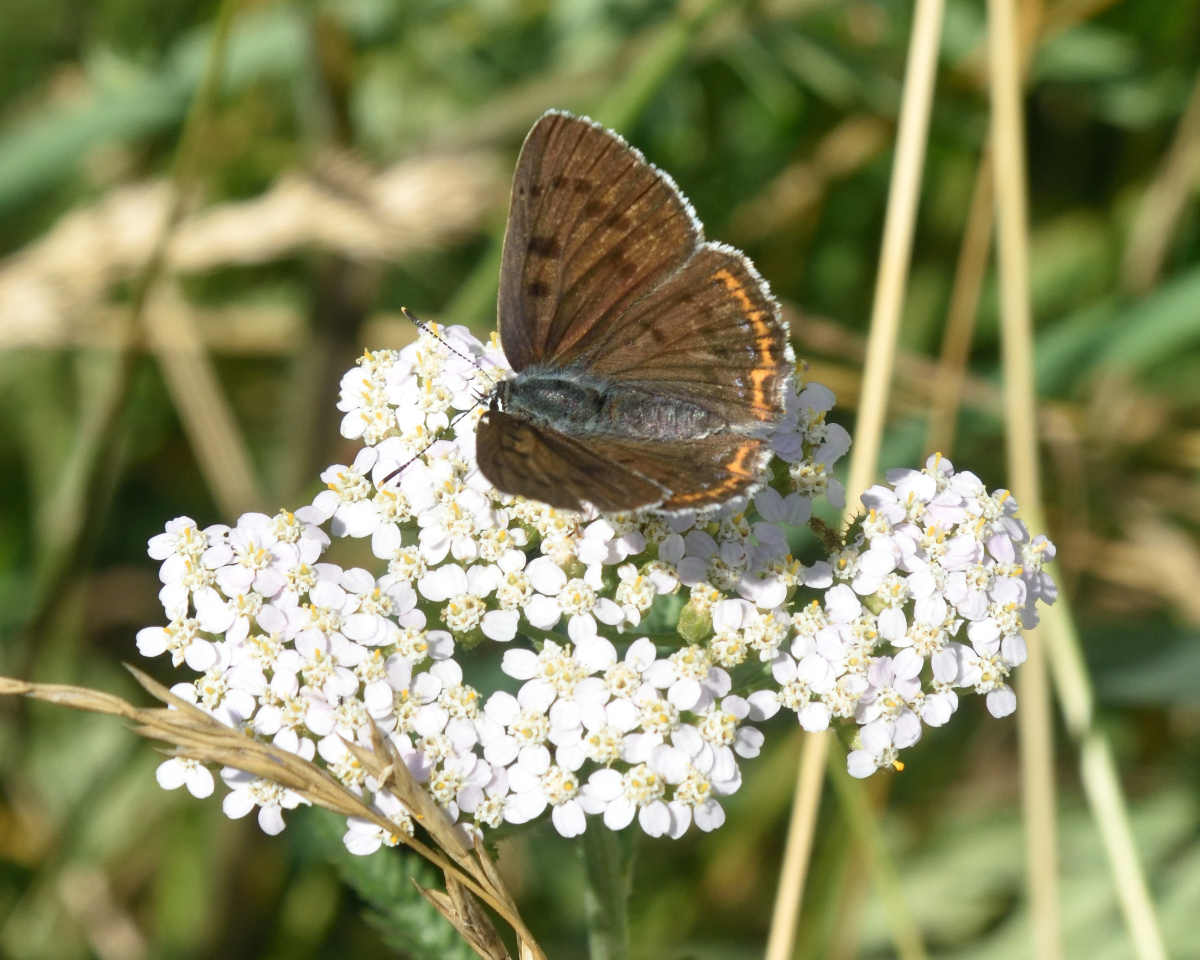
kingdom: Animalia
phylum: Arthropoda
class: Insecta
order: Lepidoptera
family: Lycaenidae
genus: Lycaena
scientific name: Lycaena alciphron
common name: Purple-shot copper
